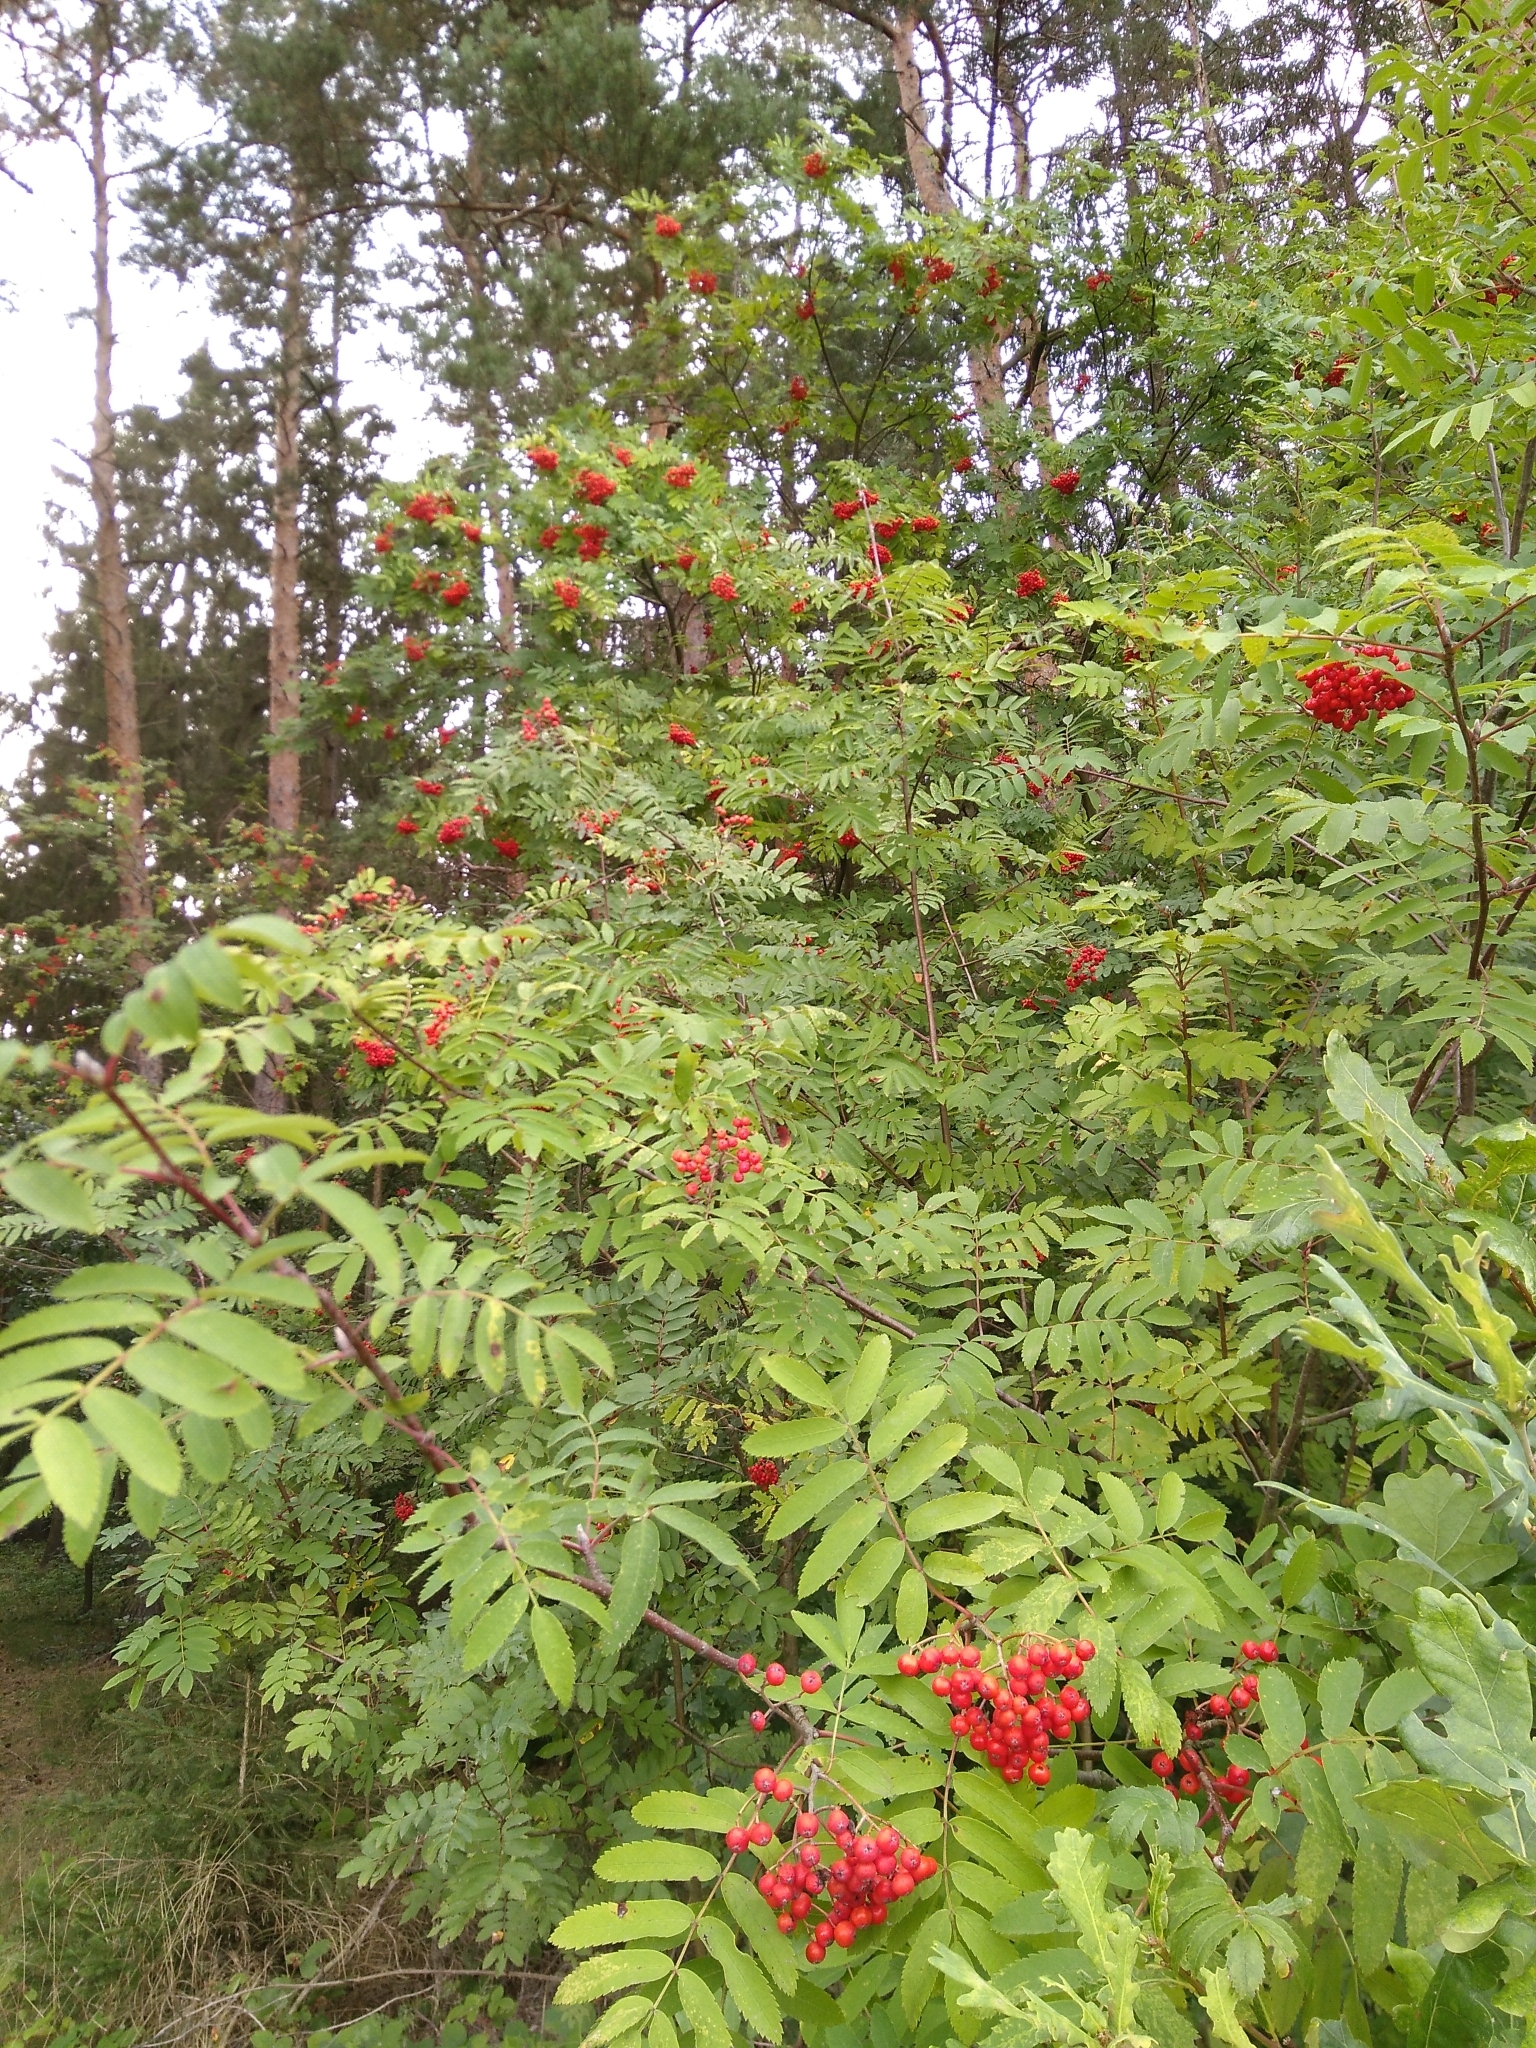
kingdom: Plantae
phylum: Tracheophyta
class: Magnoliopsida
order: Rosales
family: Rosaceae
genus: Sorbus
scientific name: Sorbus aucuparia
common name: Rowan
